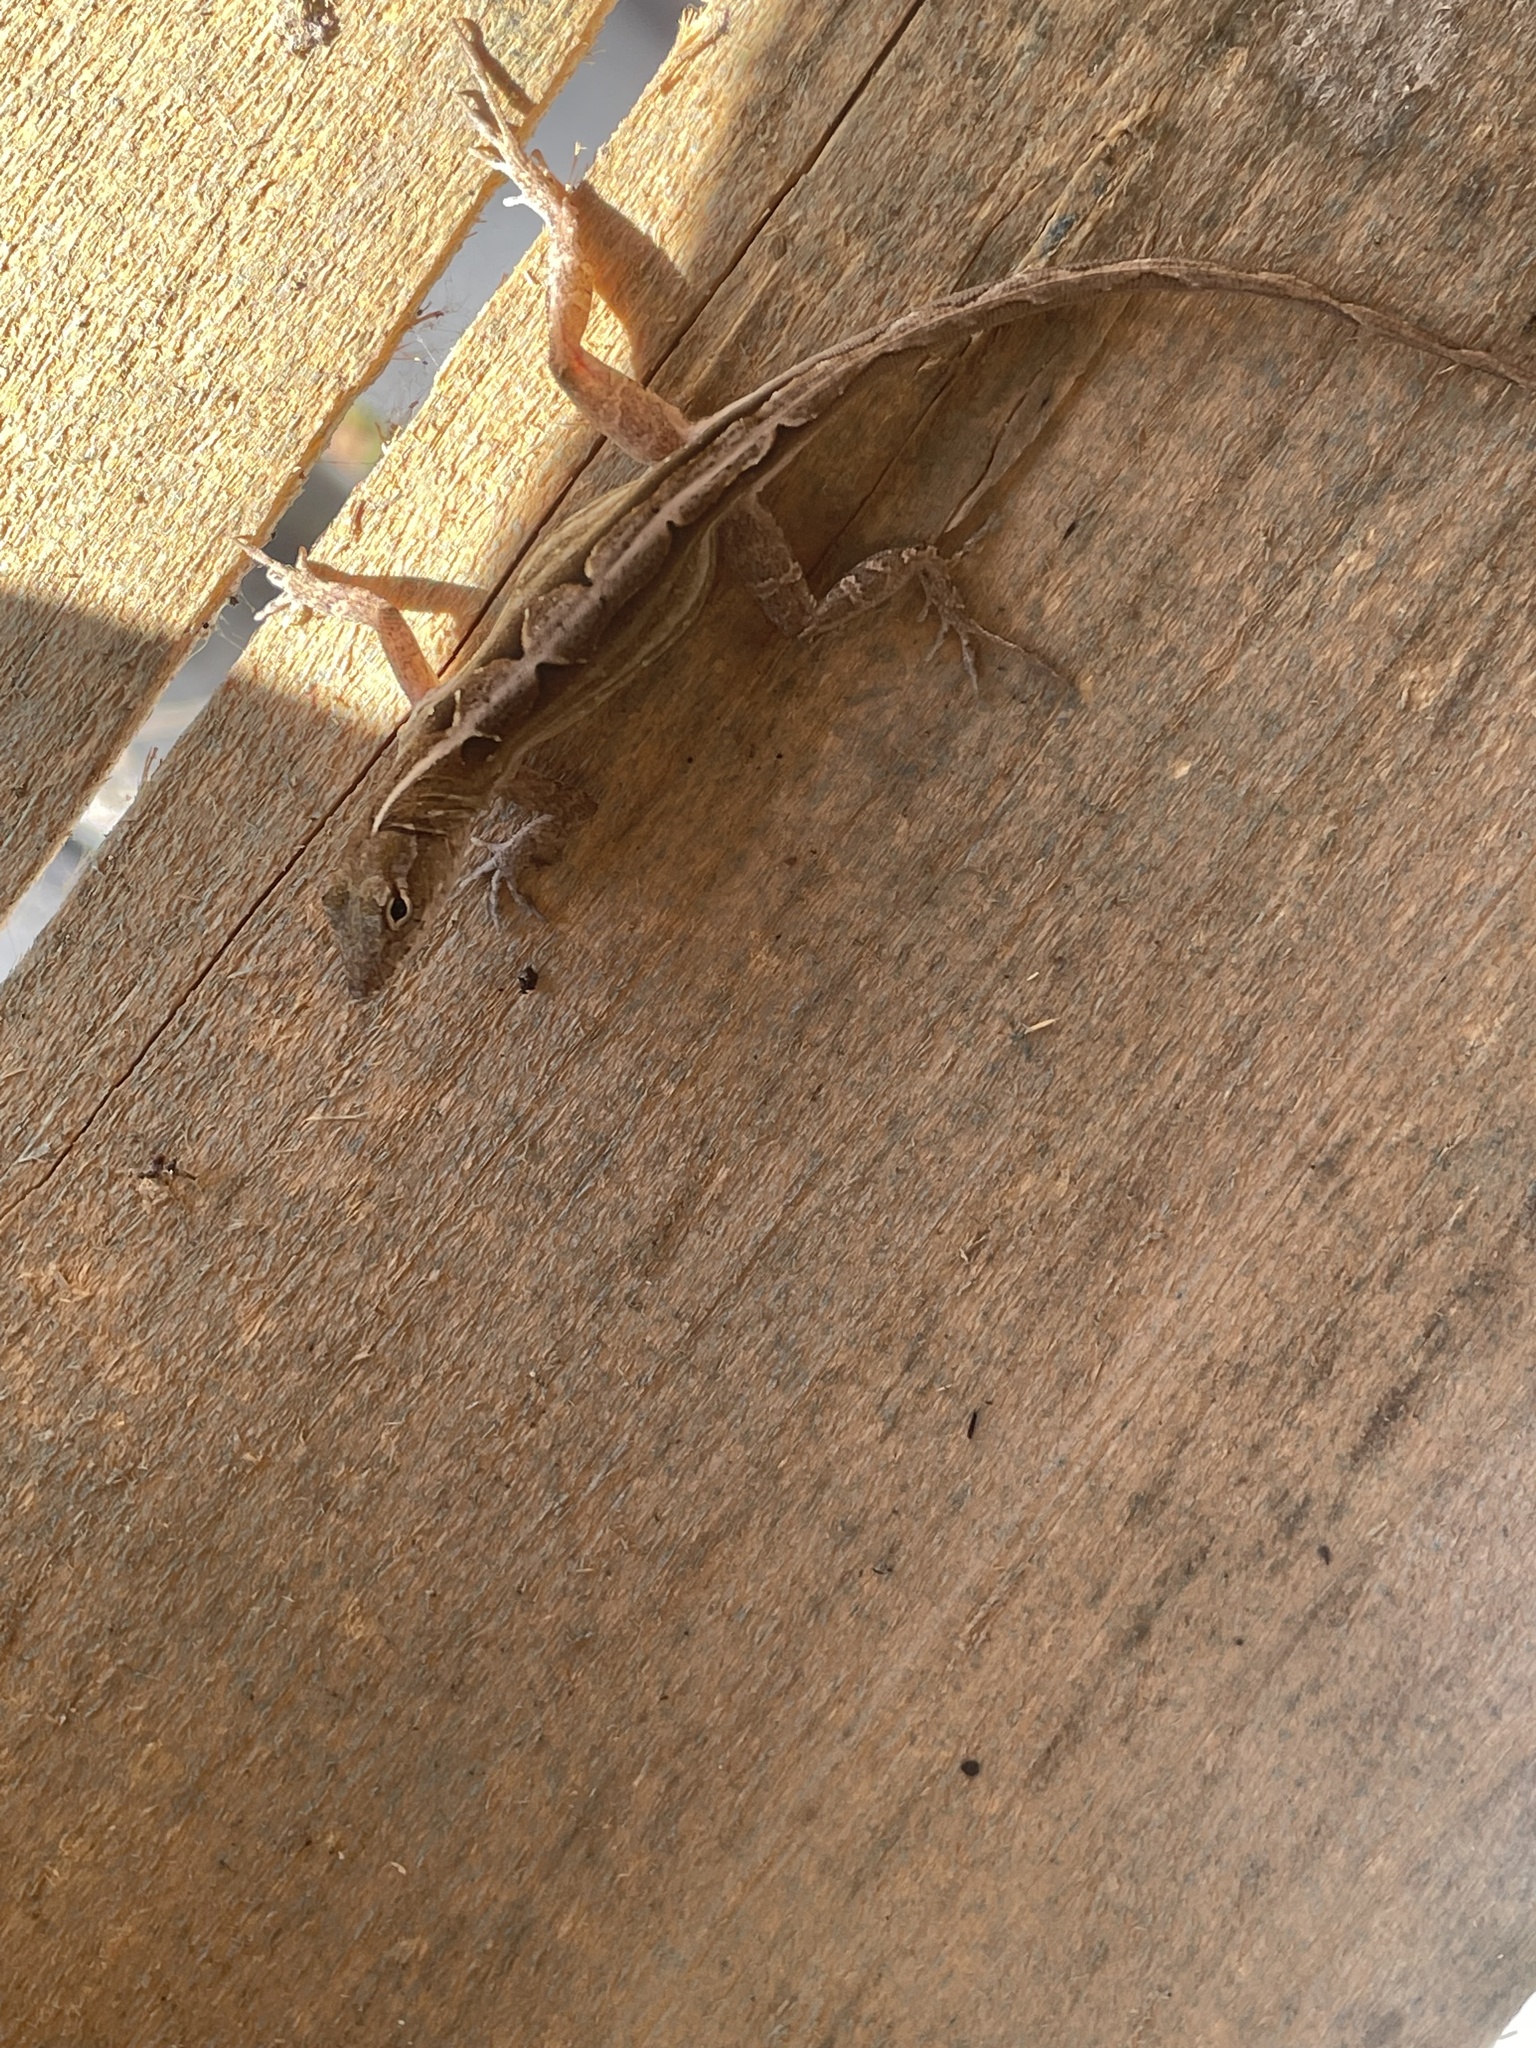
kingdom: Animalia
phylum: Chordata
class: Squamata
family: Dactyloidae
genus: Anolis
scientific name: Anolis sagrei
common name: Brown anole
